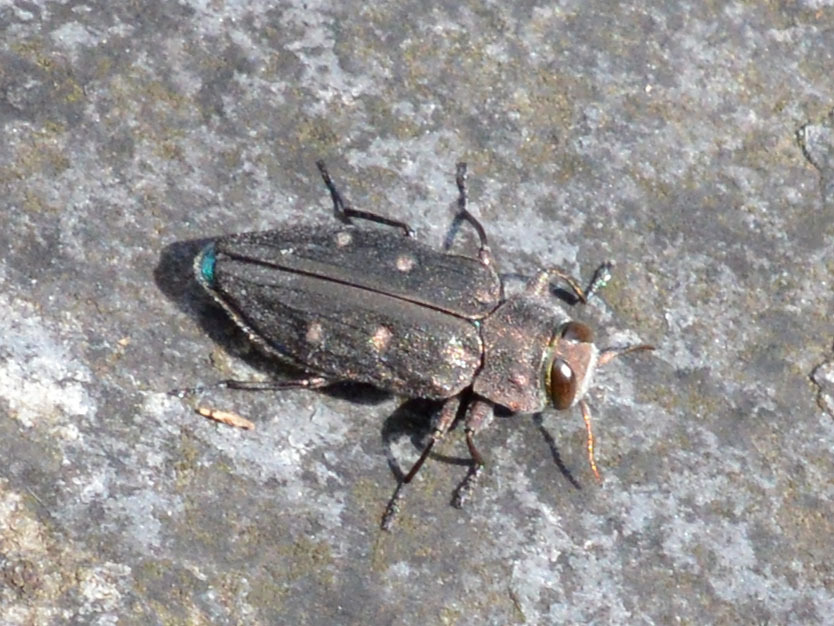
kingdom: Animalia
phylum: Arthropoda
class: Insecta
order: Coleoptera
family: Buprestidae
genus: Chrysobothris
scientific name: Chrysobothris affinis
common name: Beetle
